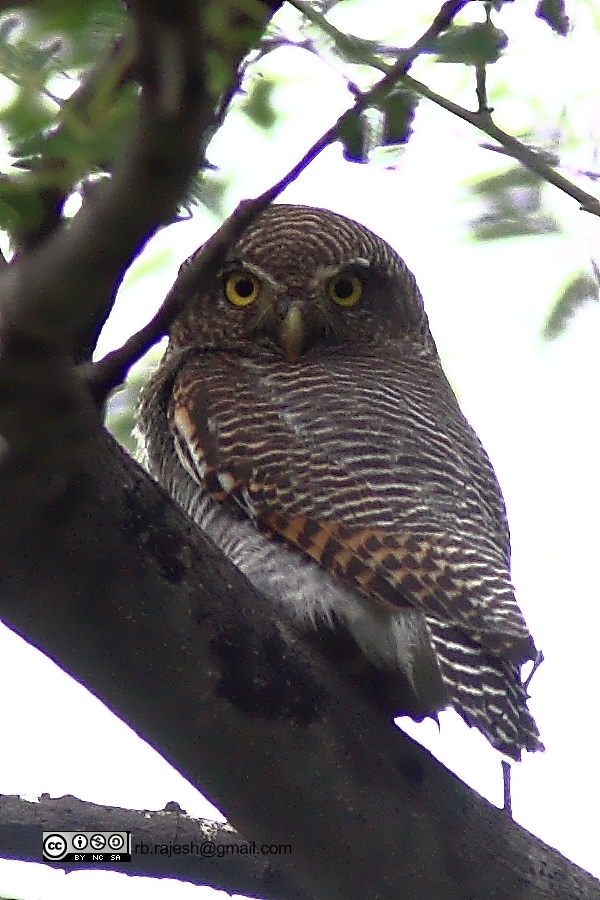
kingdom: Animalia
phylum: Chordata
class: Aves
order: Strigiformes
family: Strigidae
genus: Glaucidium
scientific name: Glaucidium radiatum
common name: Jungle owlet
